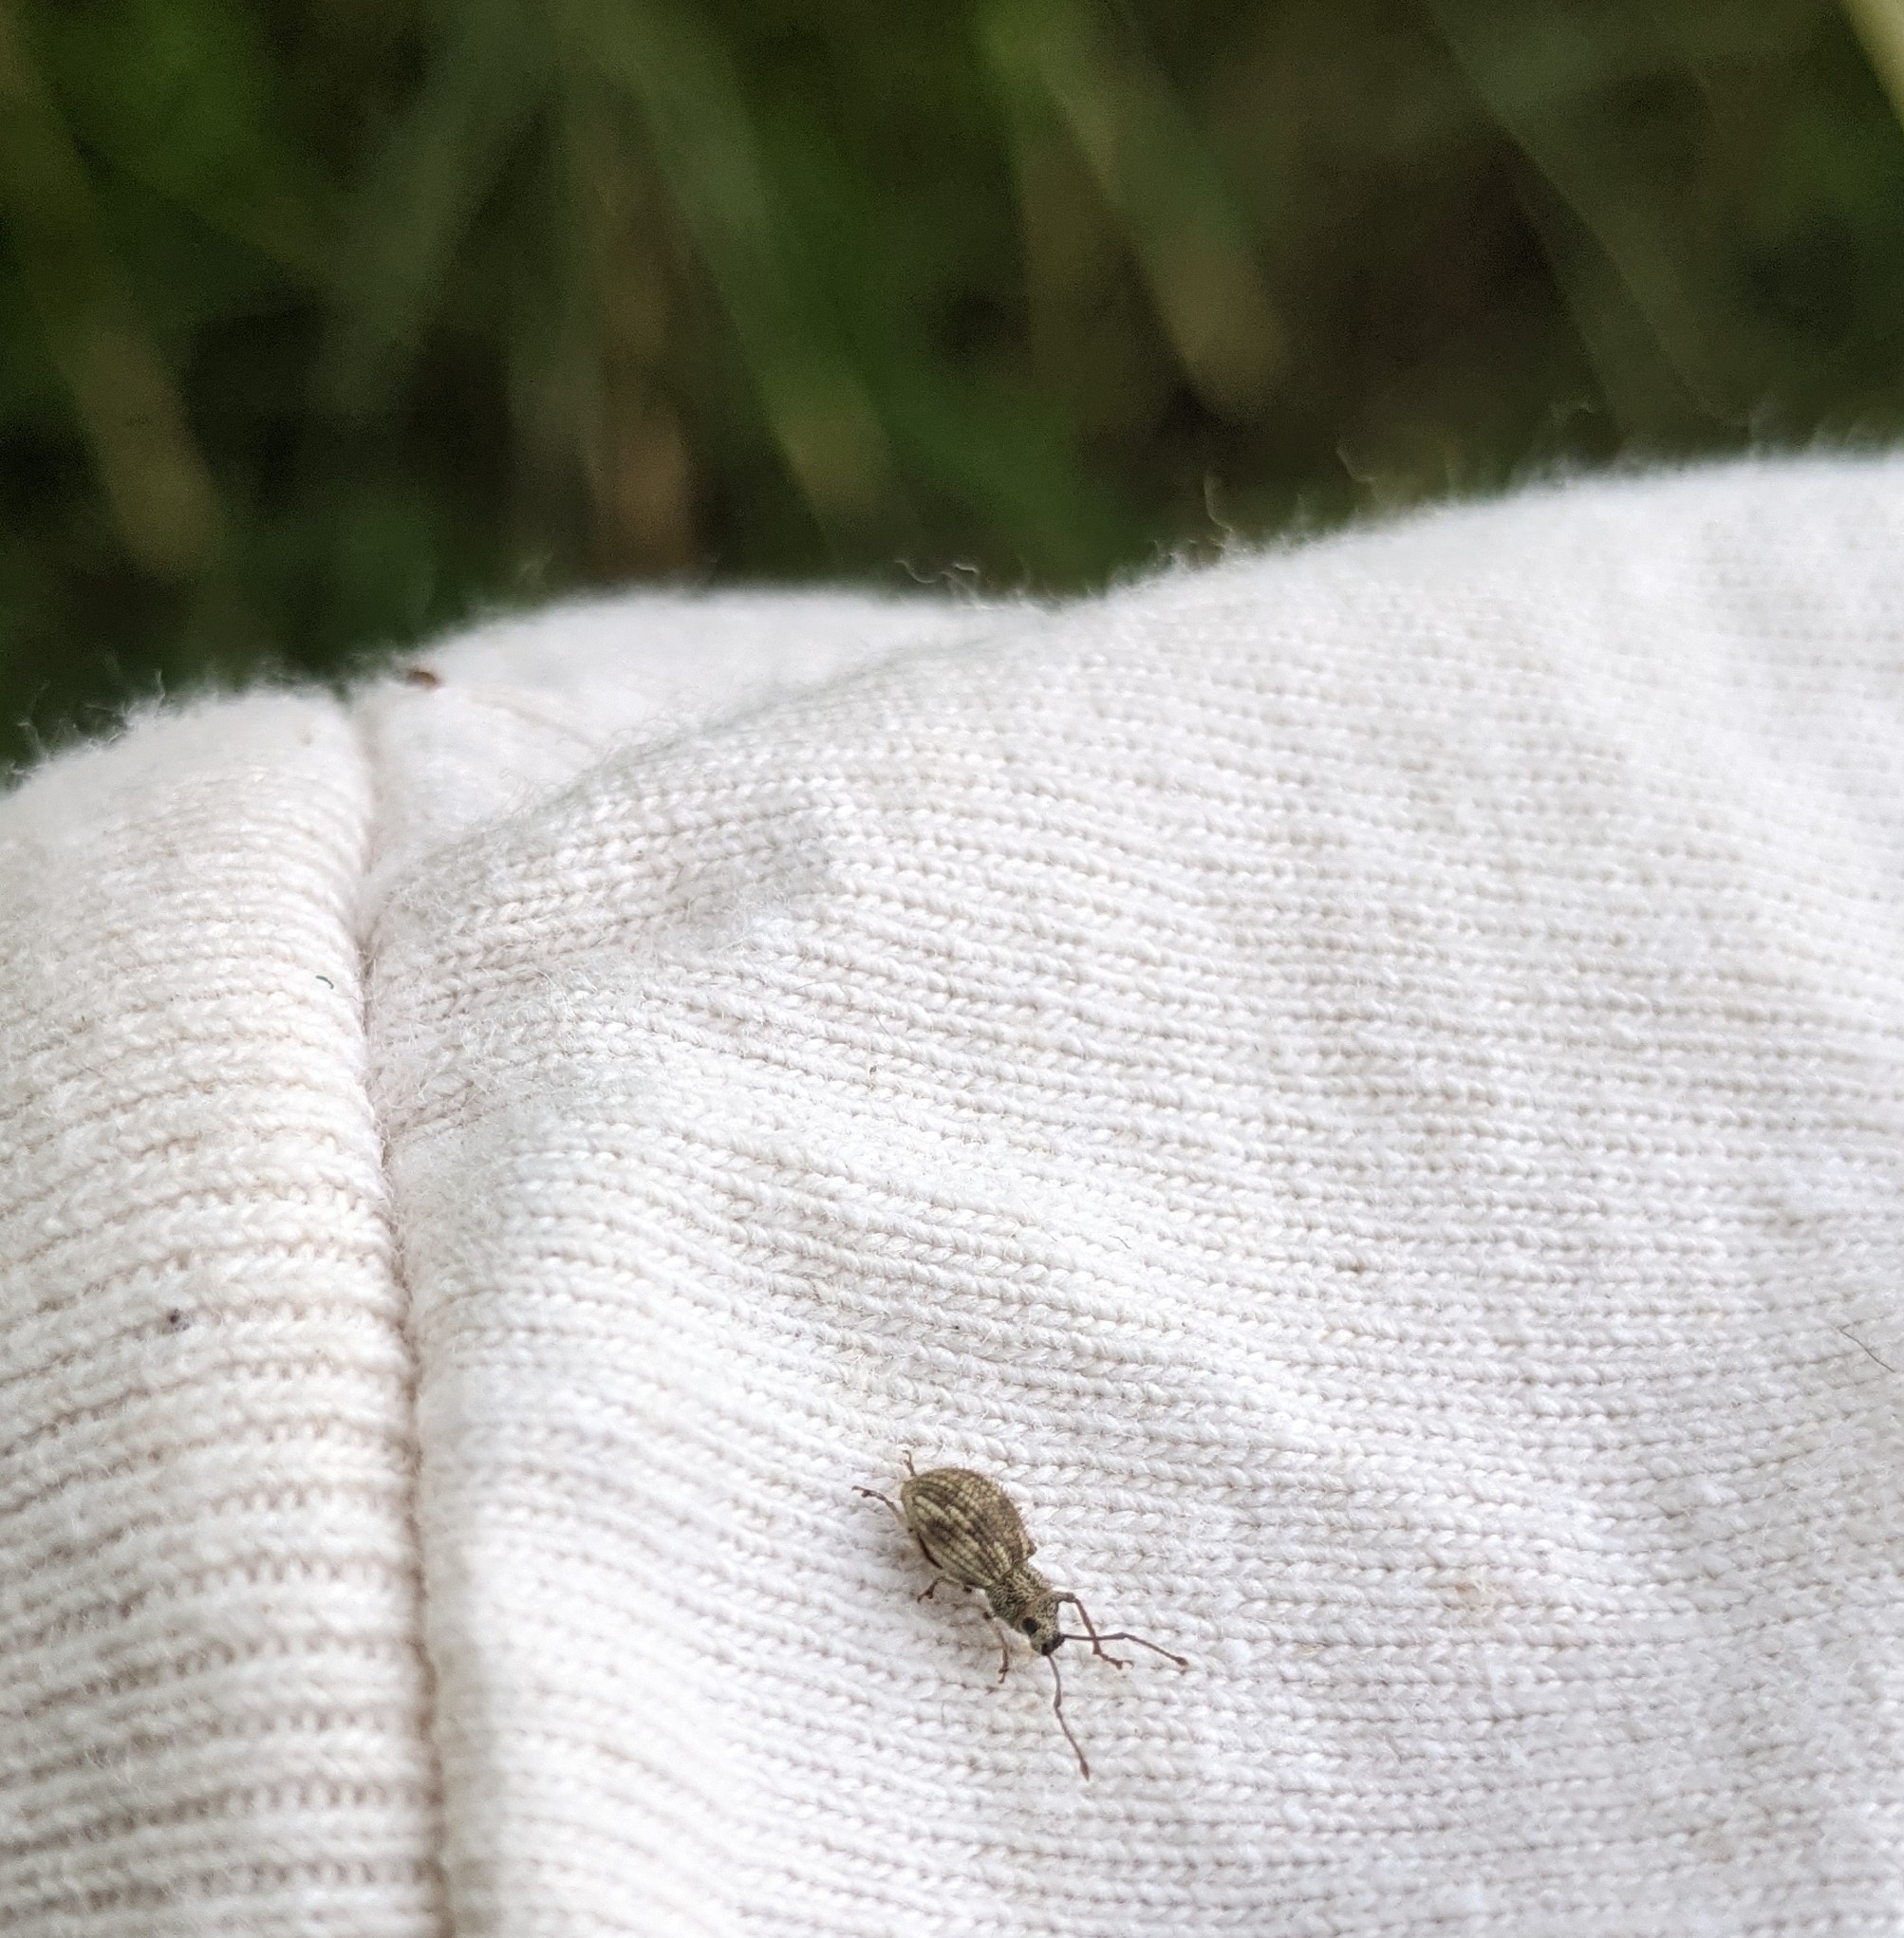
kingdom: Animalia
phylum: Arthropoda
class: Insecta
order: Coleoptera
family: Curculionidae
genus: Calomycterus
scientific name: Calomycterus setarius
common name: Weevil
